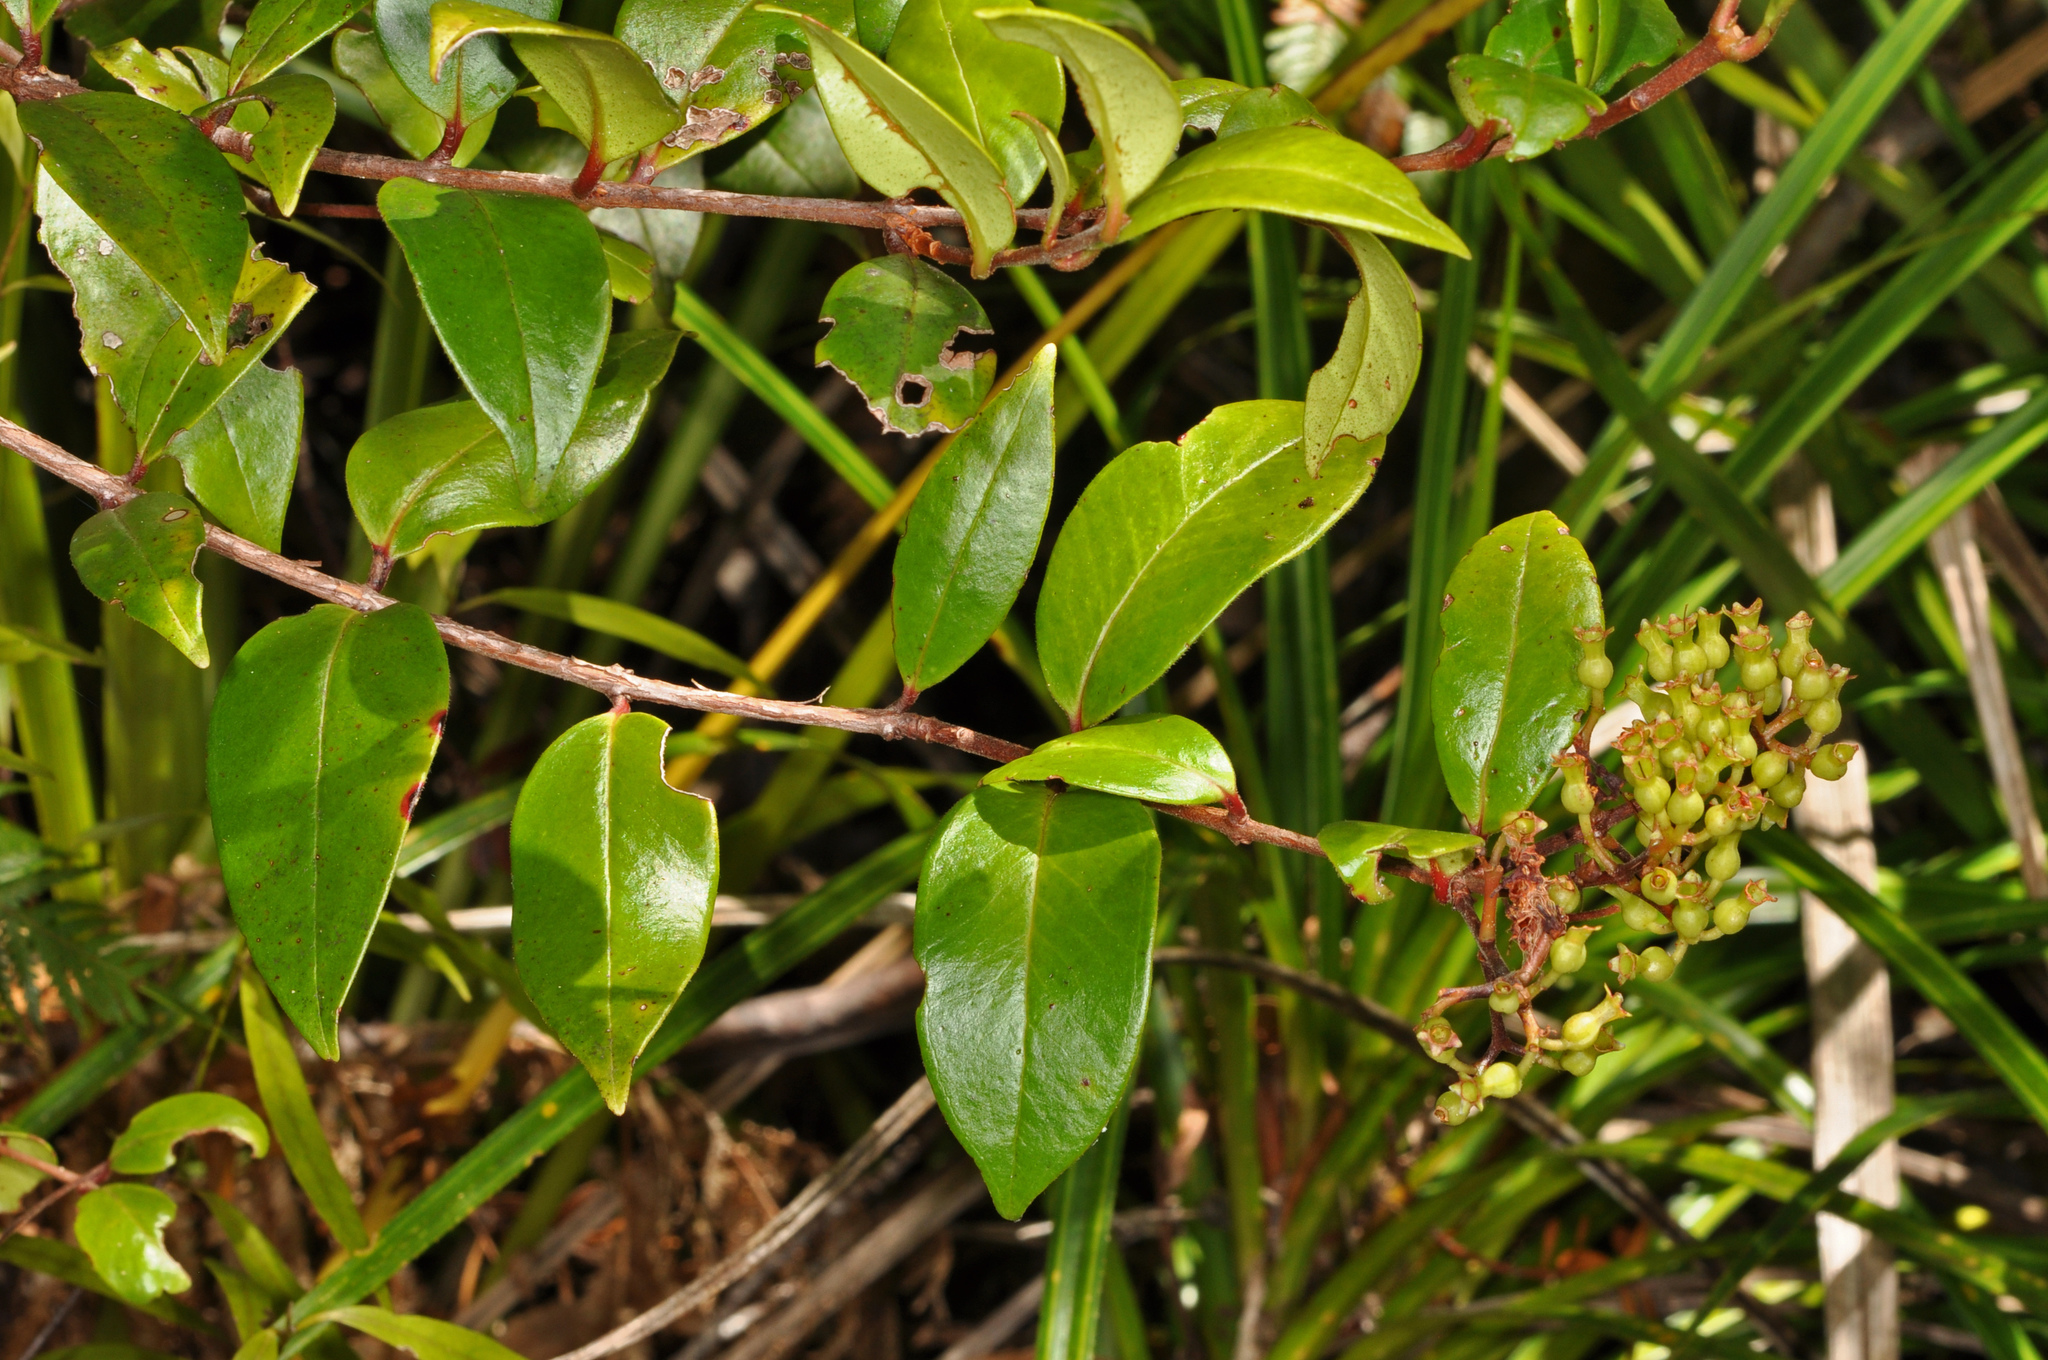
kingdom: Plantae
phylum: Tracheophyta
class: Magnoliopsida
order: Myrtales
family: Myrtaceae
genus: Metrosideros
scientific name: Metrosideros albiflora
